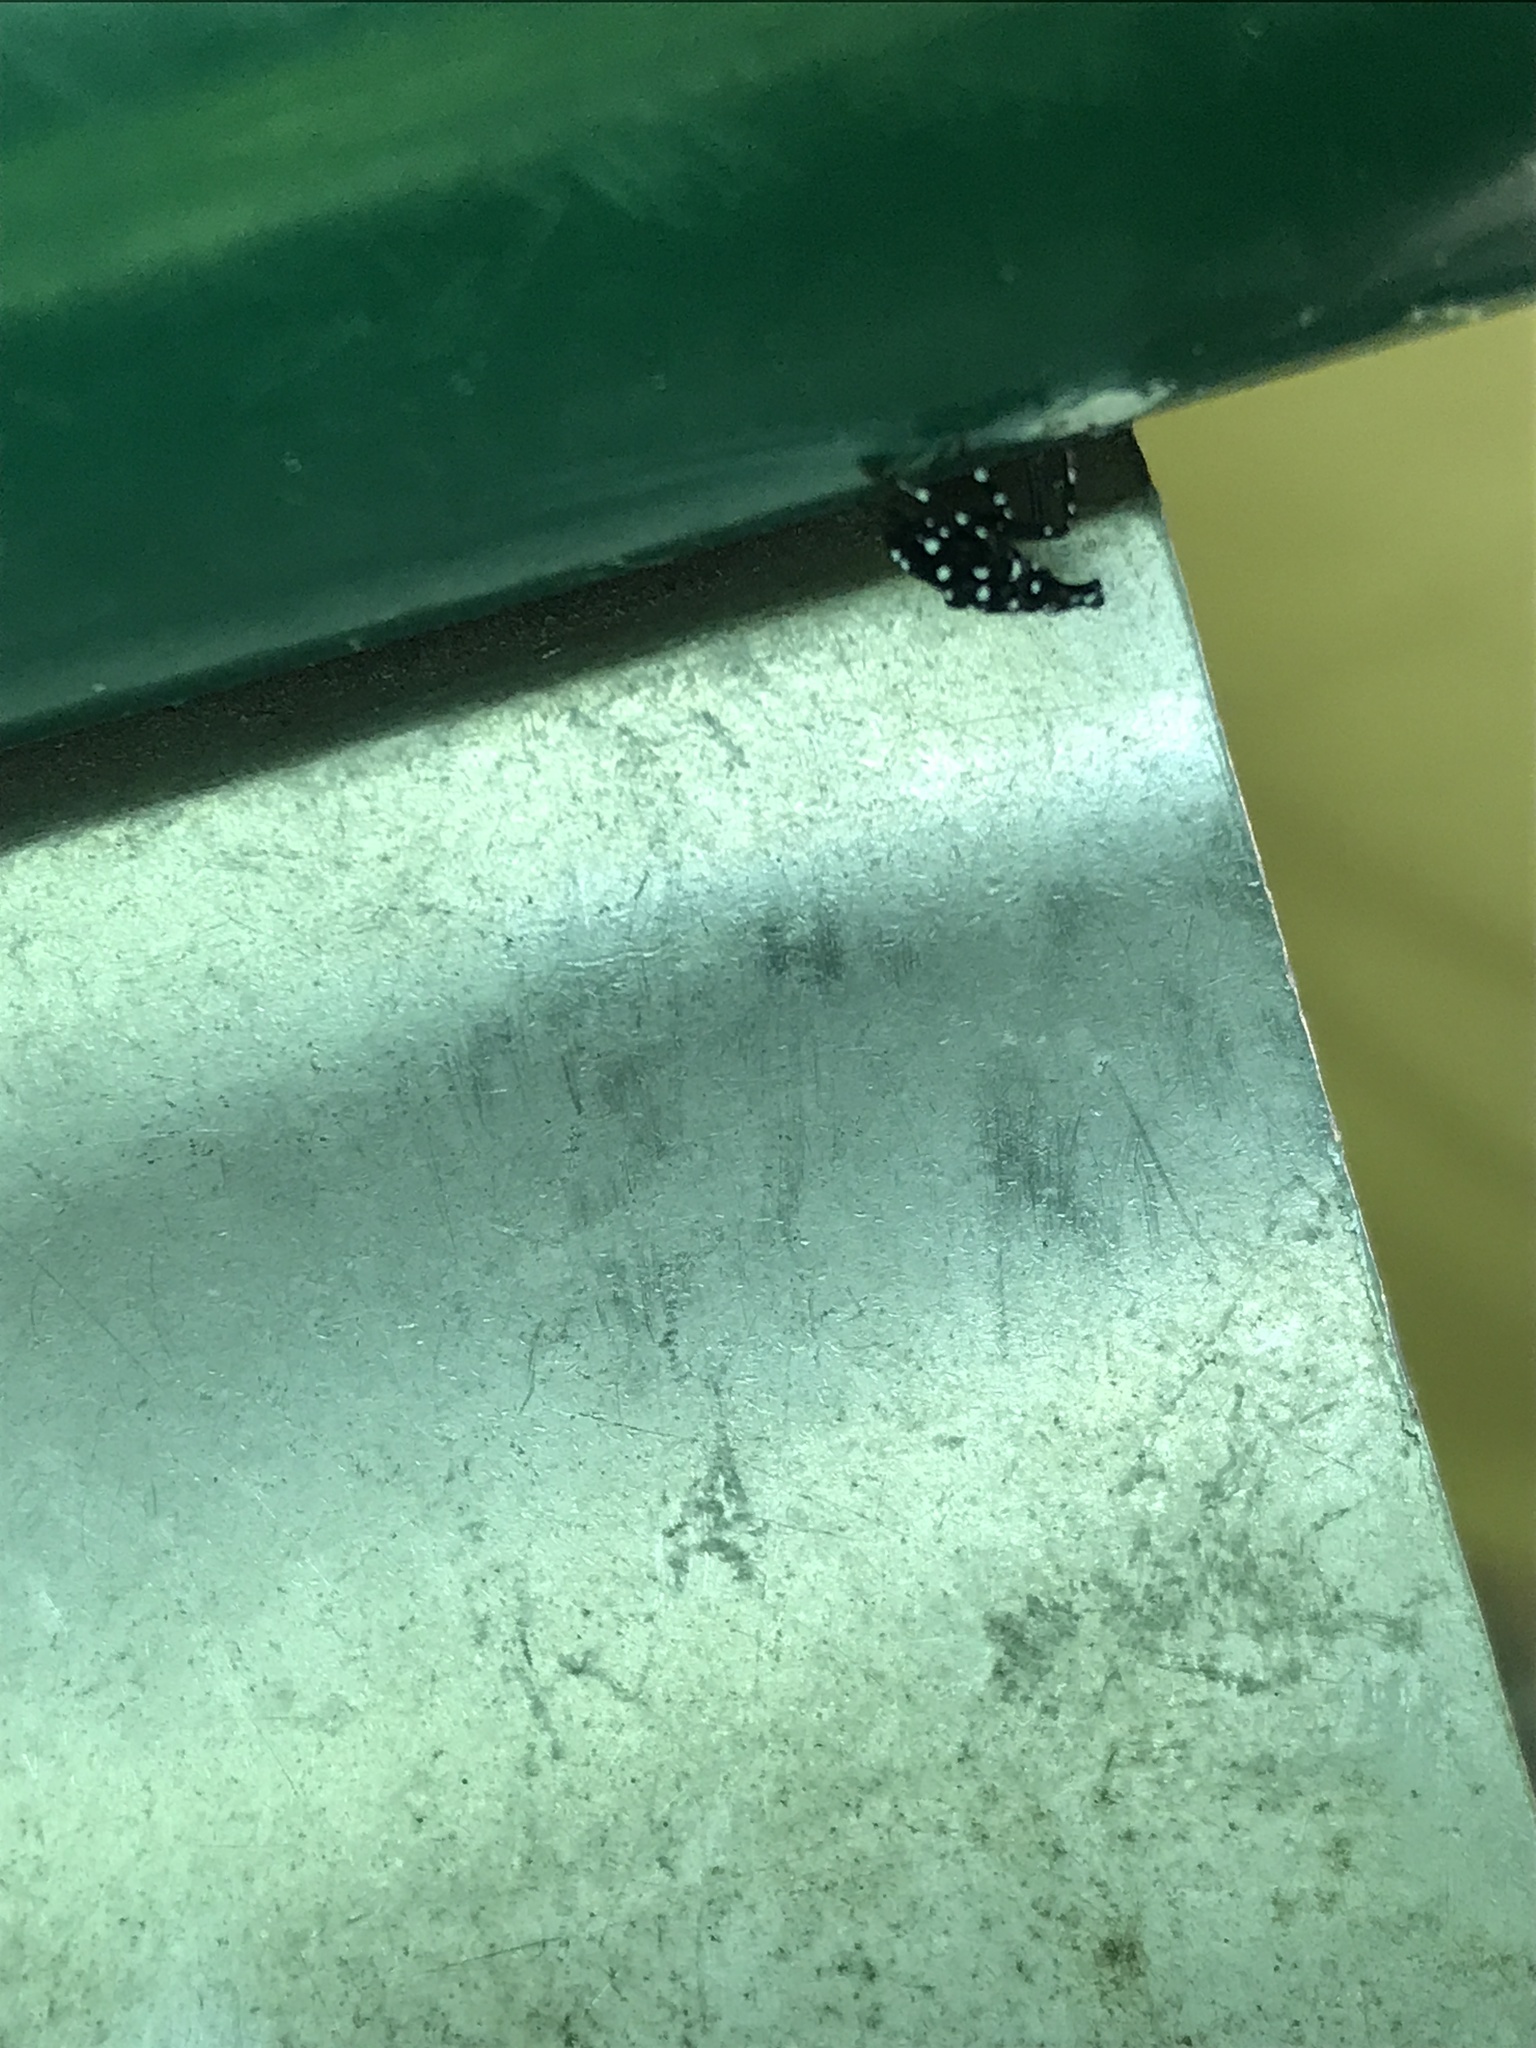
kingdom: Animalia
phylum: Arthropoda
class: Insecta
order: Hemiptera
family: Fulgoridae
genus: Lycorma
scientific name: Lycorma delicatula
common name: Spotted lanternfly
